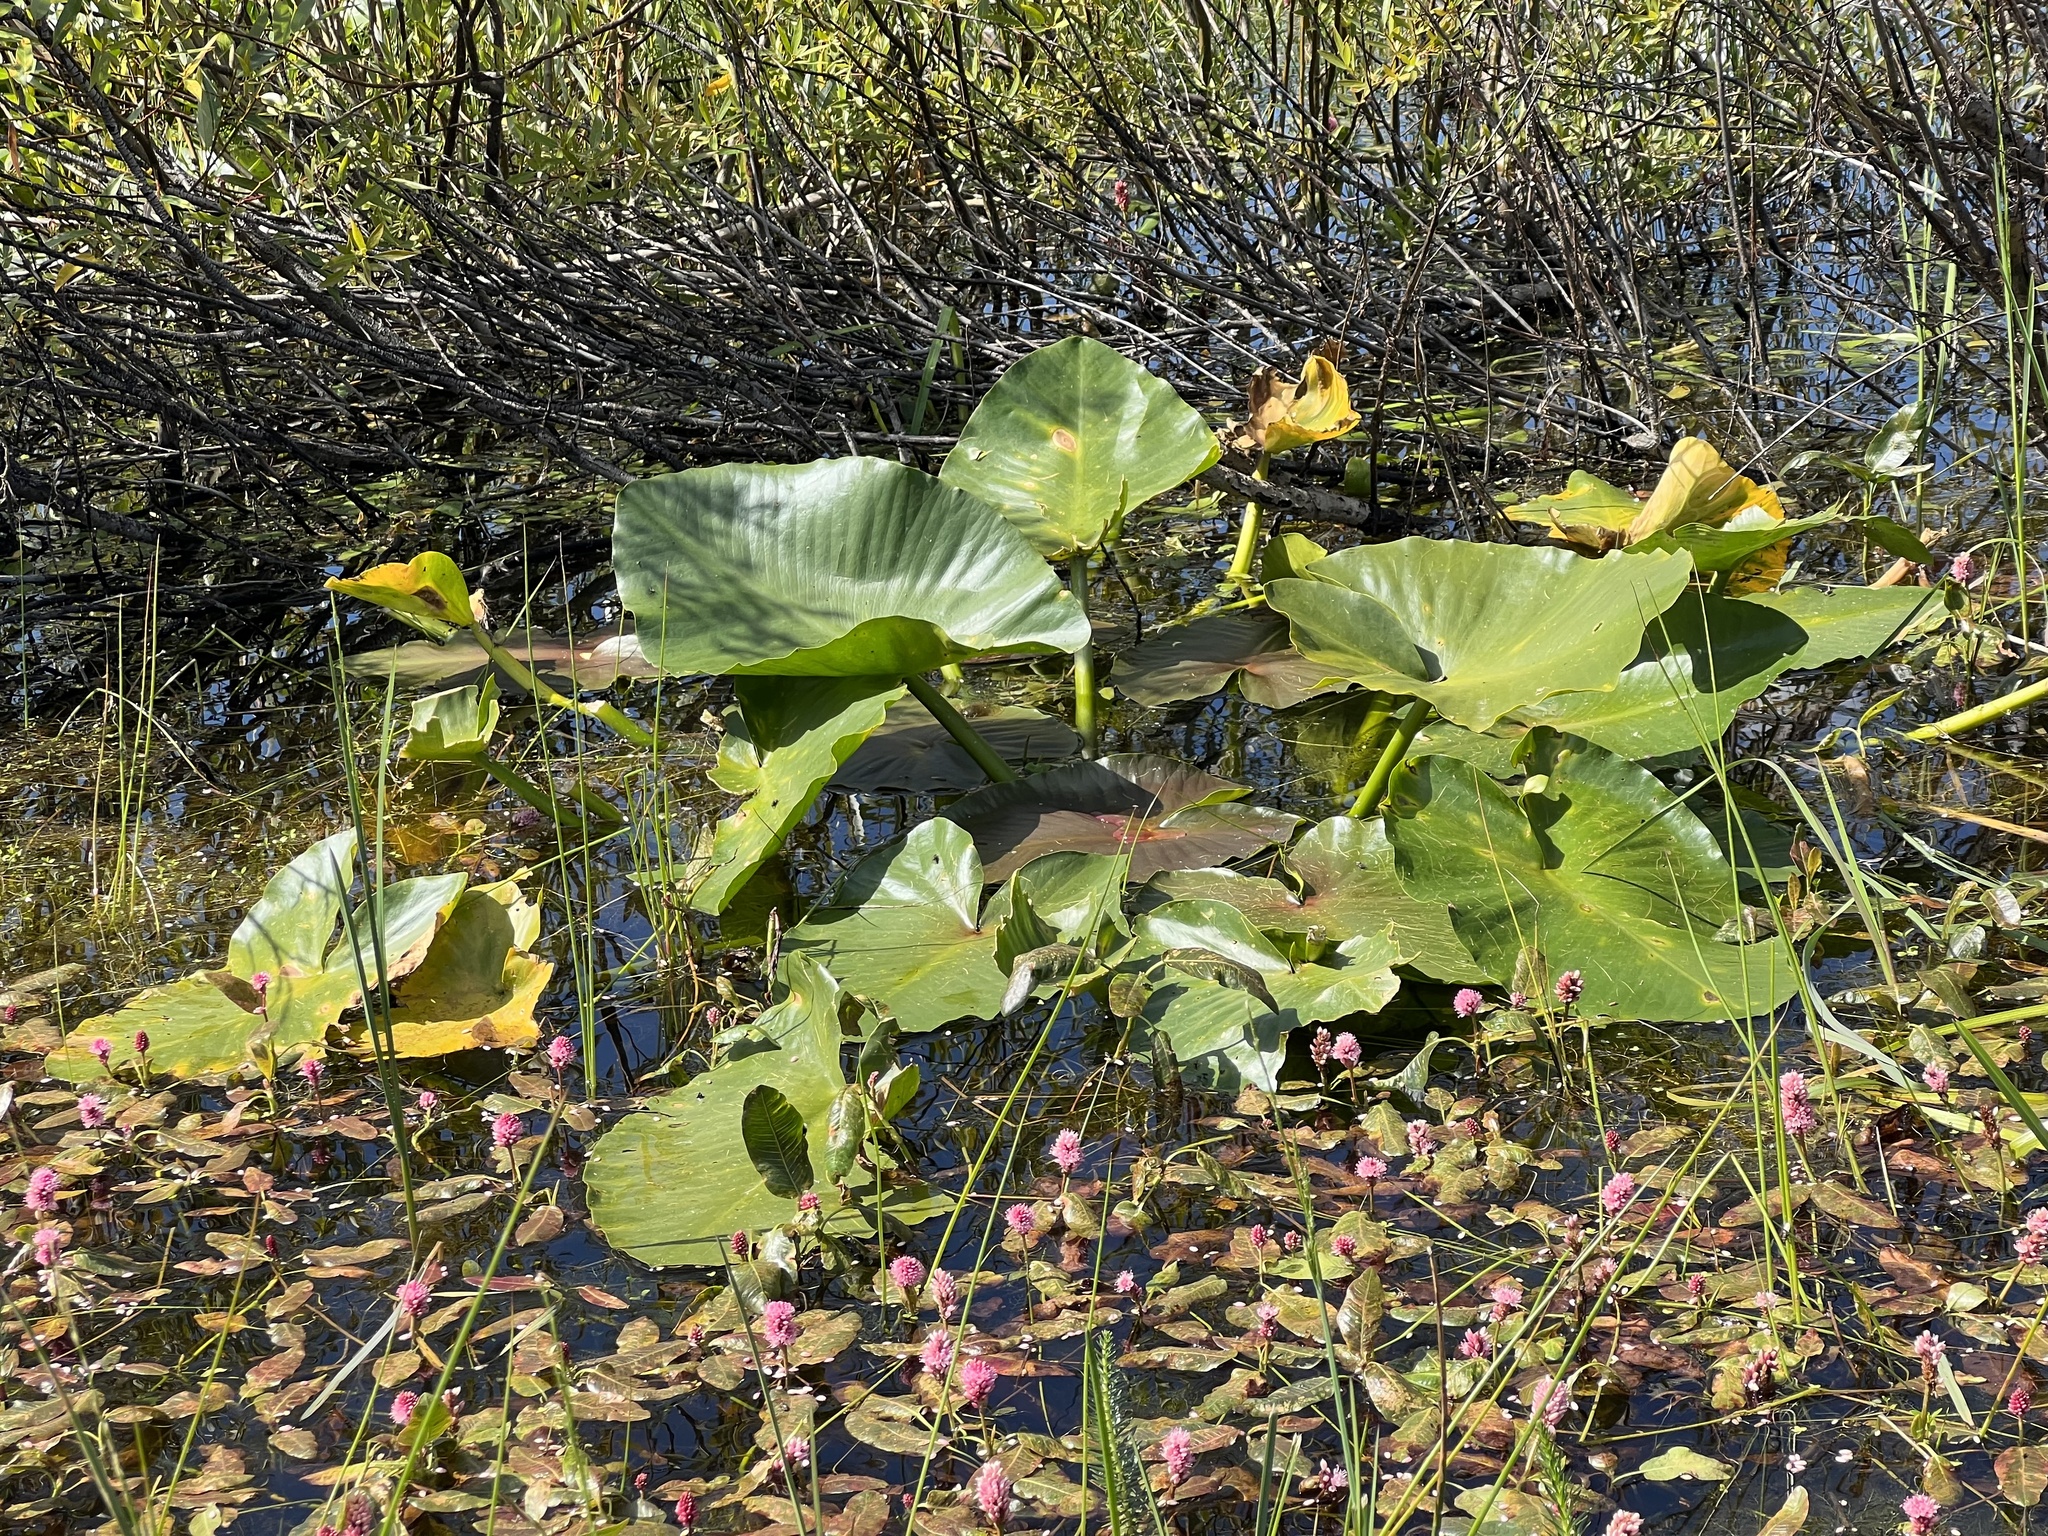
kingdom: Plantae
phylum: Tracheophyta
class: Magnoliopsida
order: Nymphaeales
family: Nymphaeaceae
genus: Nuphar
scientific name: Nuphar polysepala
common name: Rocky mountain cow-lily
